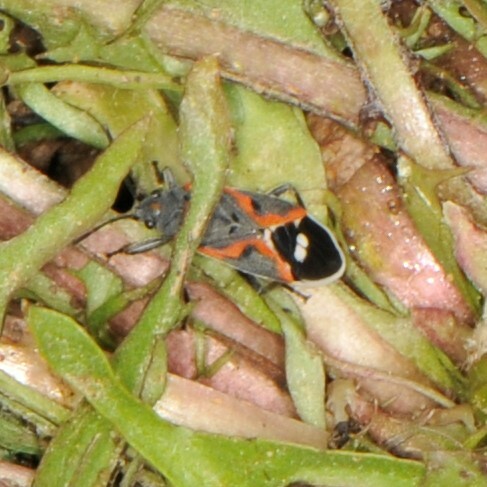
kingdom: Animalia
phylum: Arthropoda
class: Insecta
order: Hemiptera
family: Lygaeidae
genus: Lygaeus
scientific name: Lygaeus kalmii
